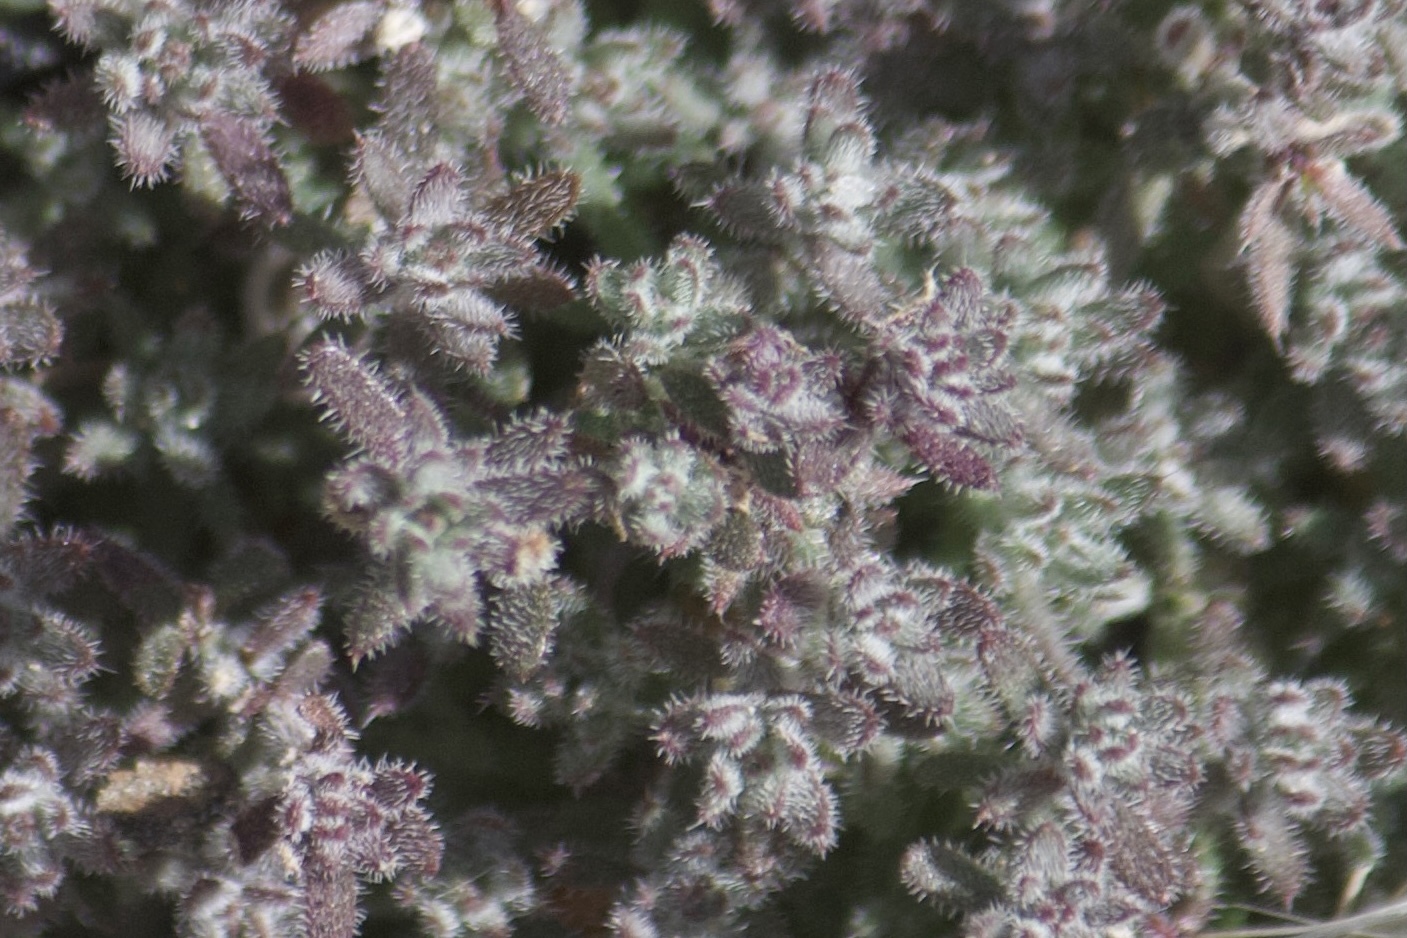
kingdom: Plantae
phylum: Tracheophyta
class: Magnoliopsida
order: Apiales
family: Apiaceae
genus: Oreonana
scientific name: Oreonana vestita
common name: Woolly mountain-parsley
